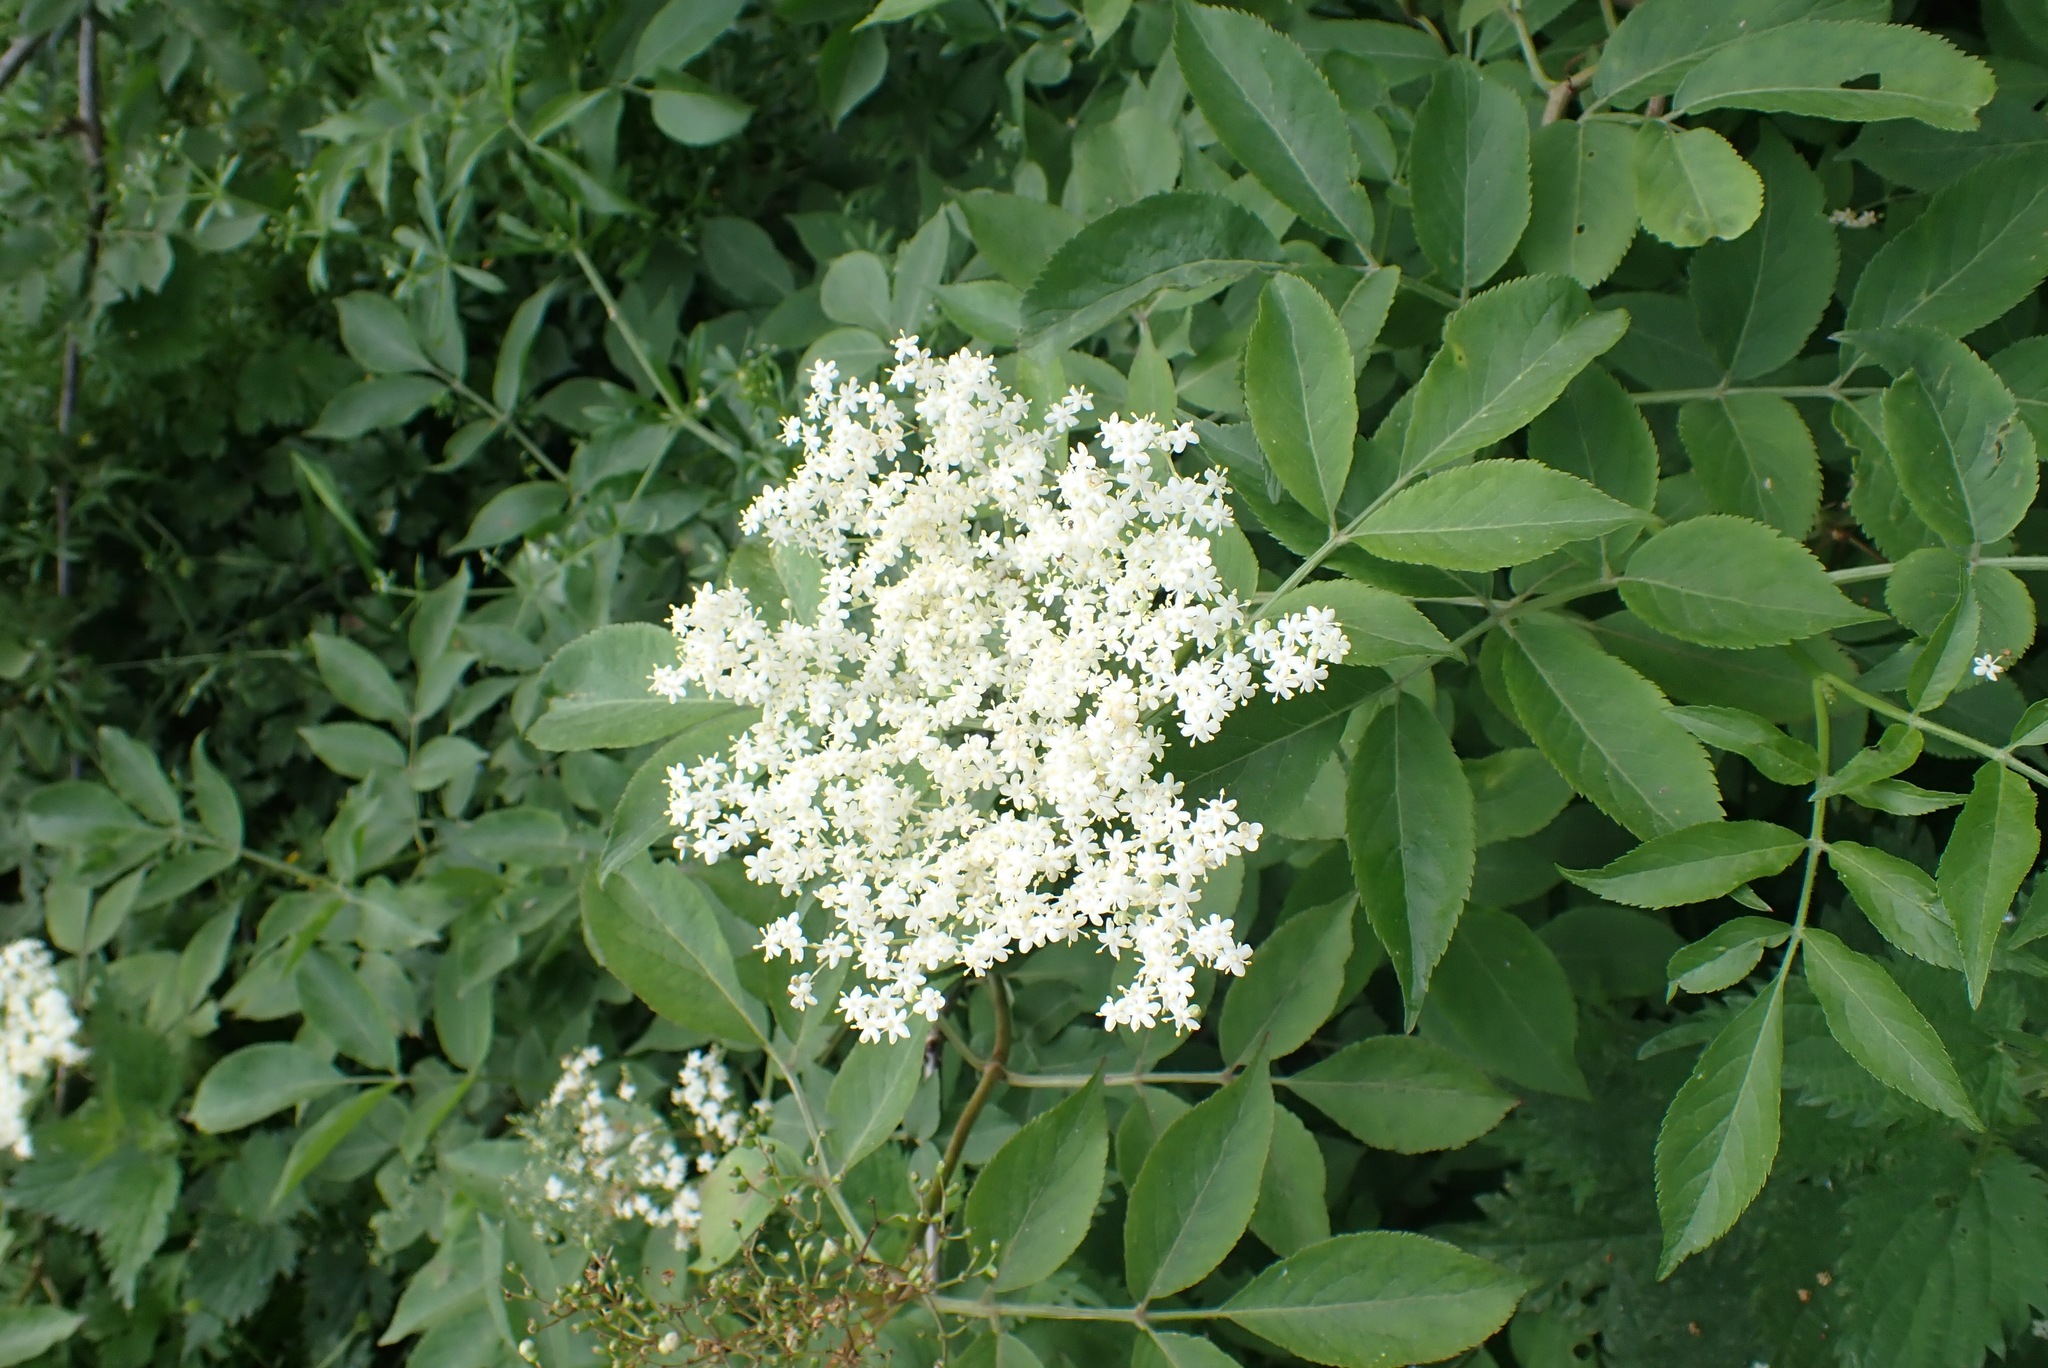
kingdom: Plantae
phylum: Tracheophyta
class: Magnoliopsida
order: Dipsacales
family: Viburnaceae
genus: Sambucus
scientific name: Sambucus nigra
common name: Elder
